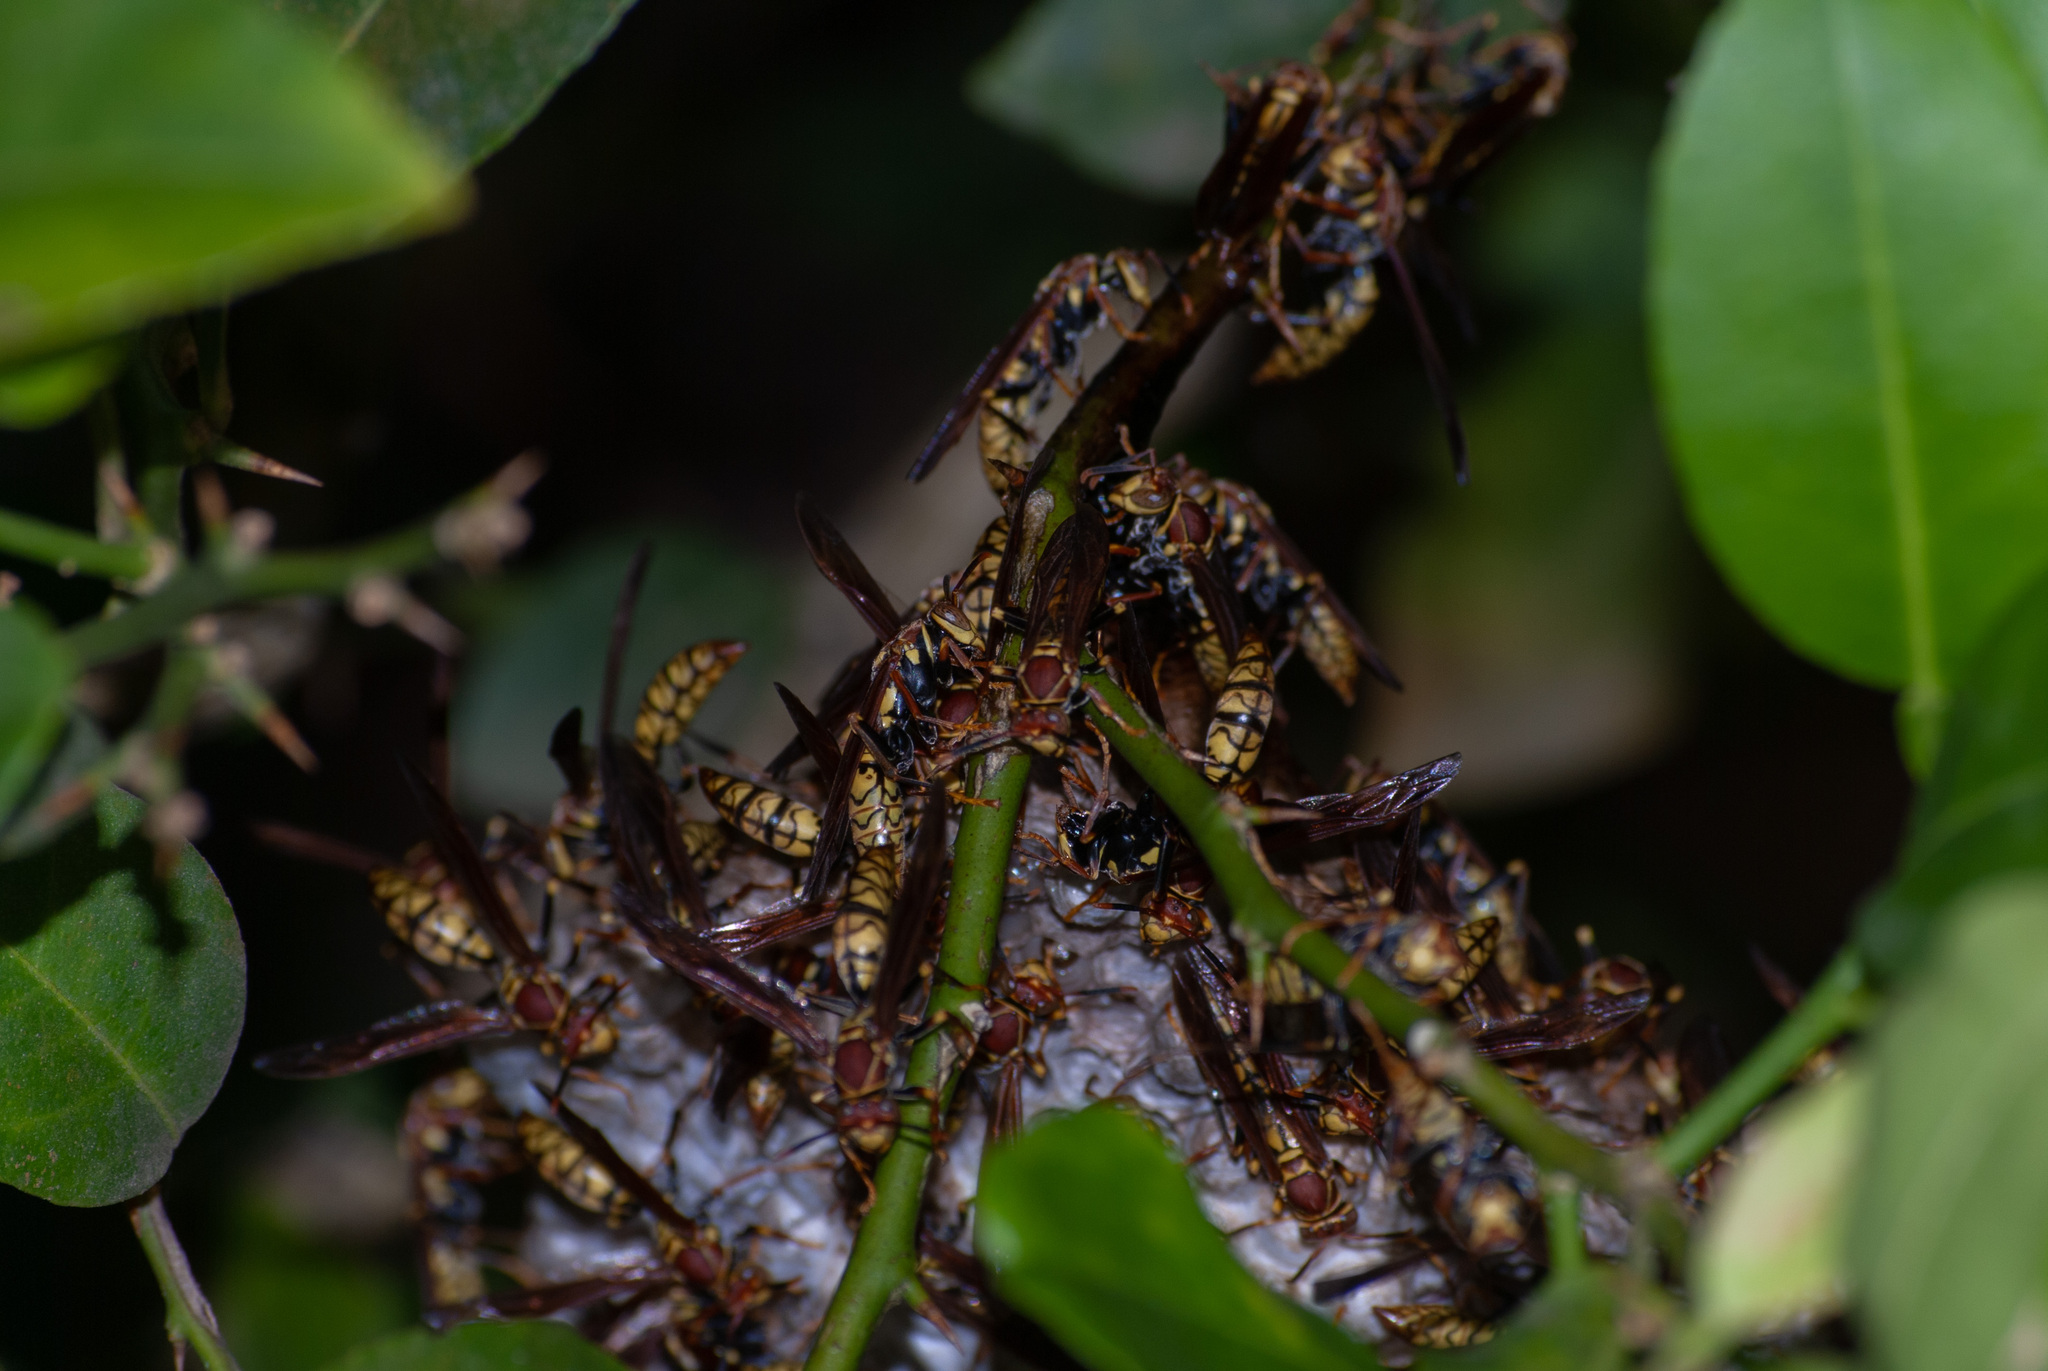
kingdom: Animalia
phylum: Arthropoda
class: Insecta
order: Hymenoptera
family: Eumenidae
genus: Polistes
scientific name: Polistes myersi
